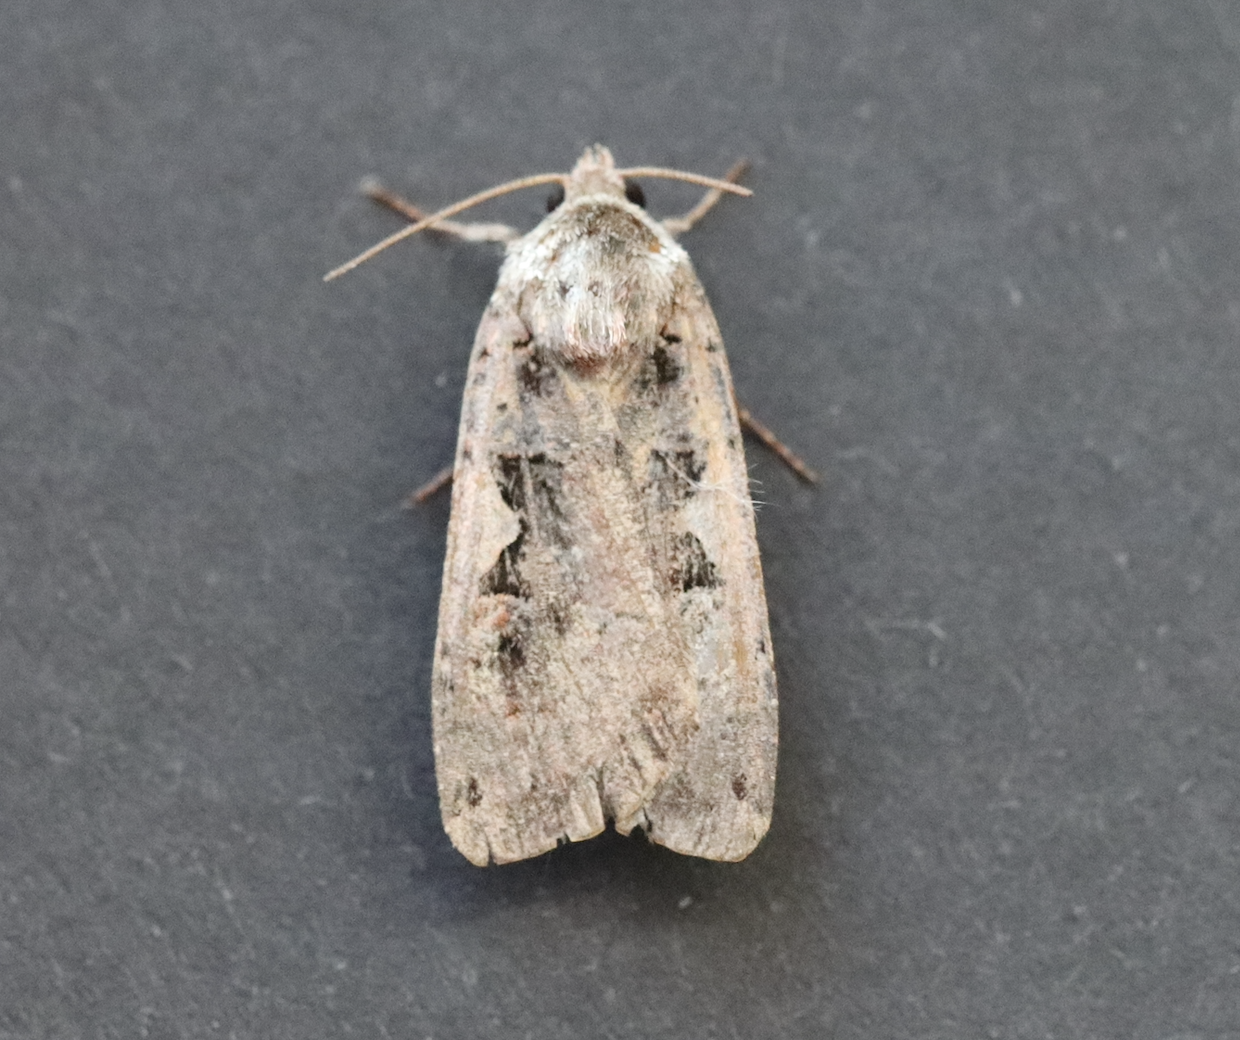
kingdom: Animalia
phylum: Arthropoda
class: Insecta
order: Lepidoptera
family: Noctuidae
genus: Xestia
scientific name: Xestia c-nigrum
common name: Setaceous hebrew character
